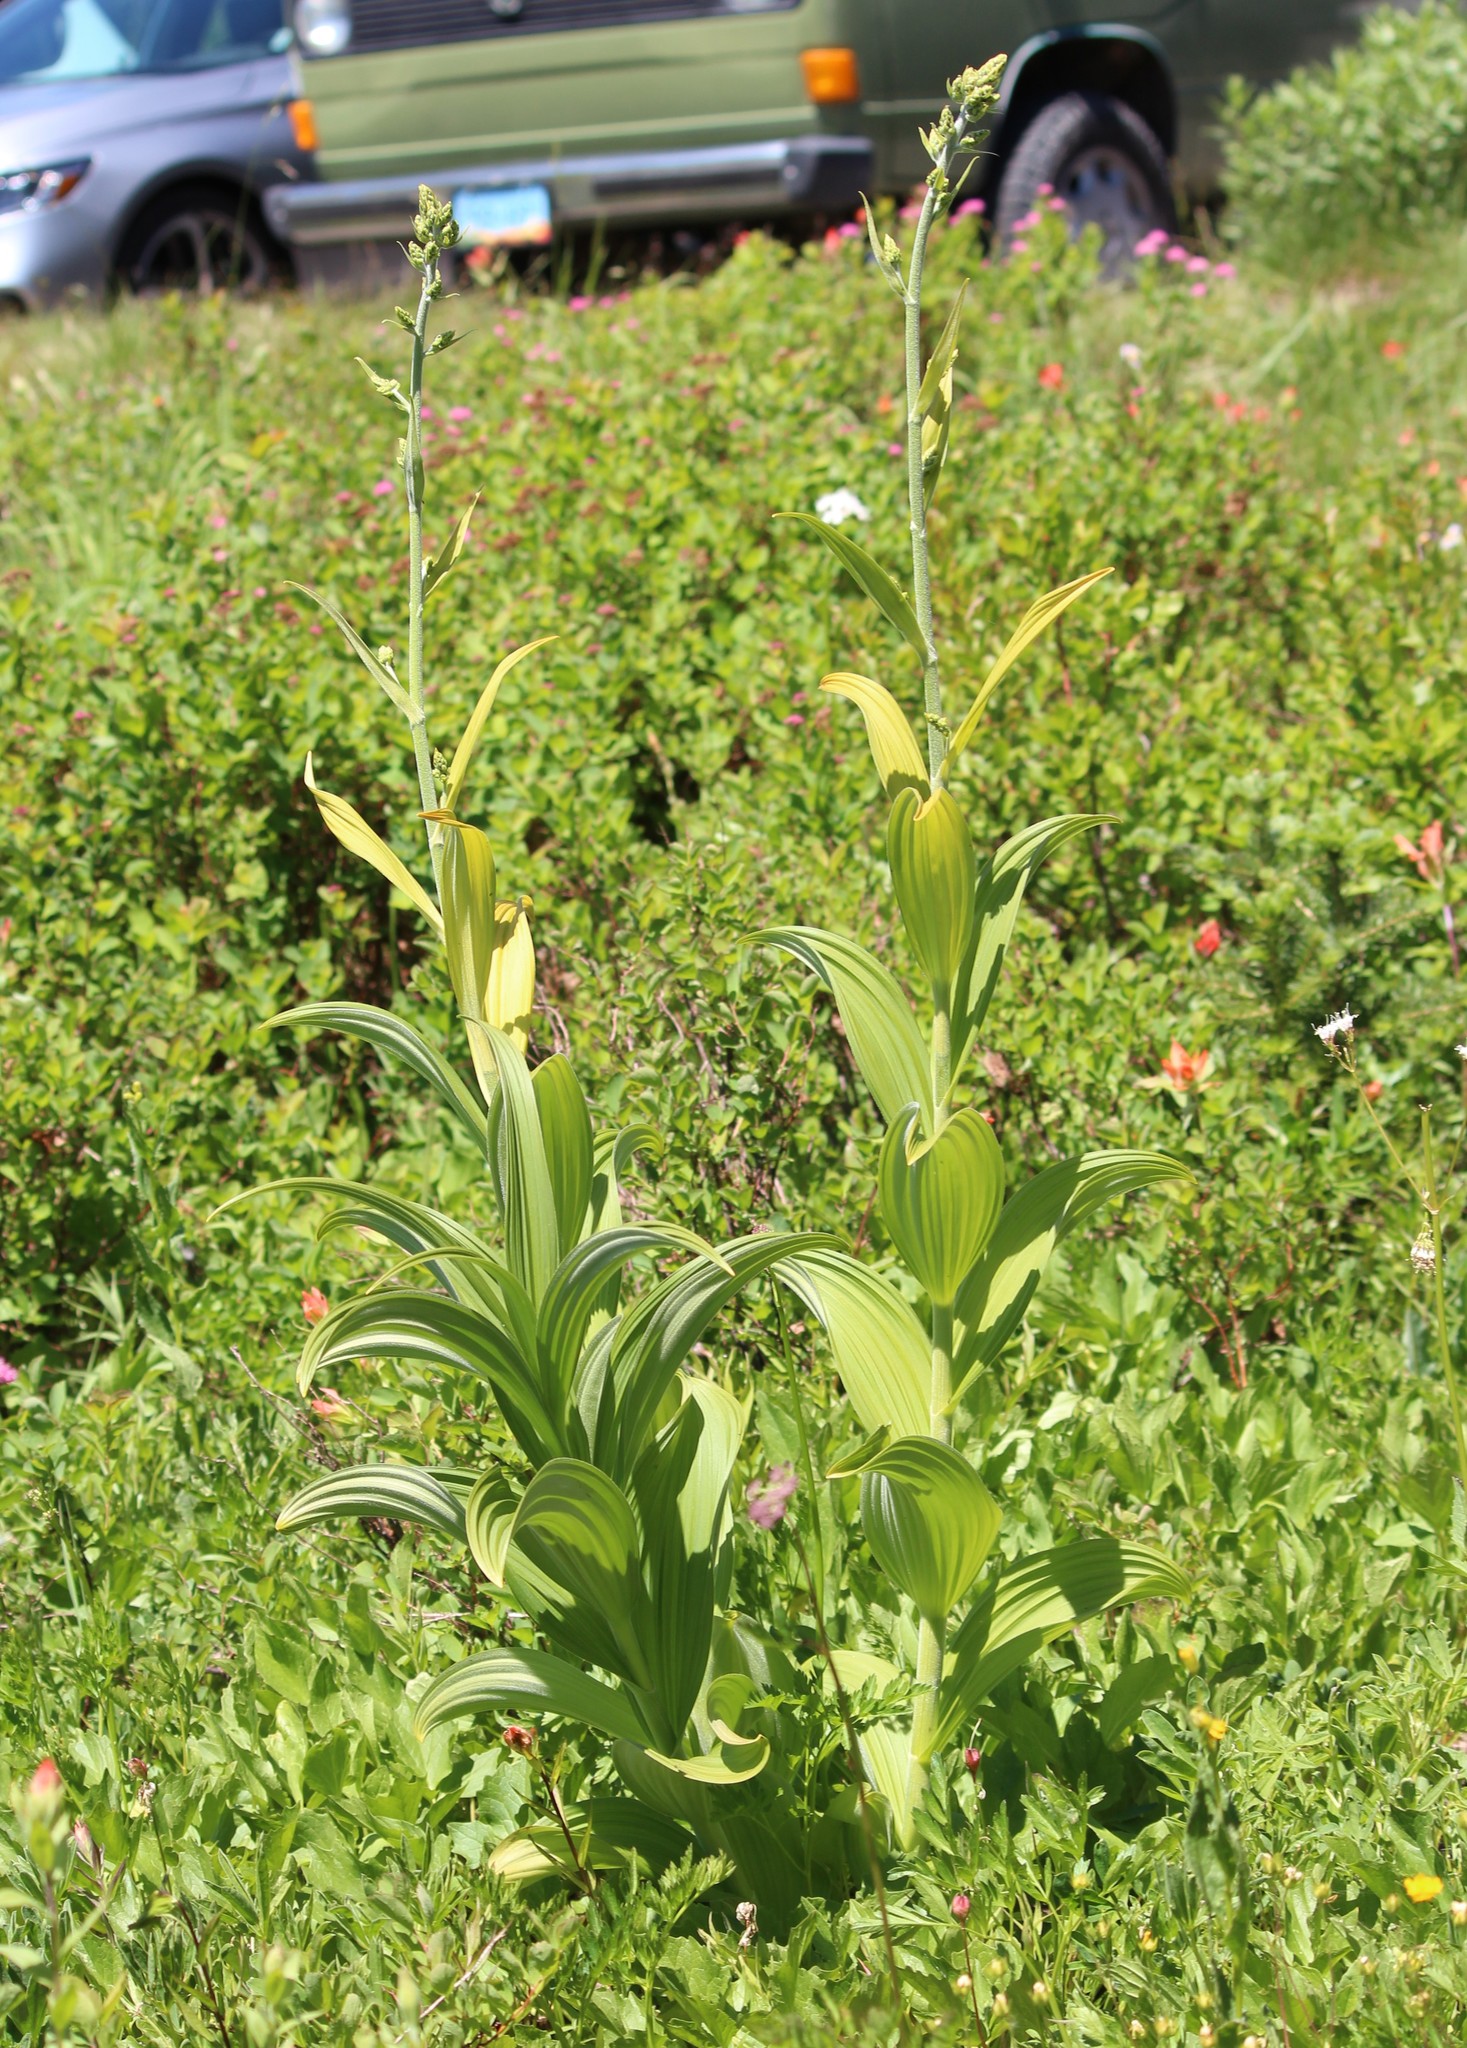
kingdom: Plantae
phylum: Tracheophyta
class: Liliopsida
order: Liliales
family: Melanthiaceae
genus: Veratrum
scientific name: Veratrum viride
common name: American false hellebore
